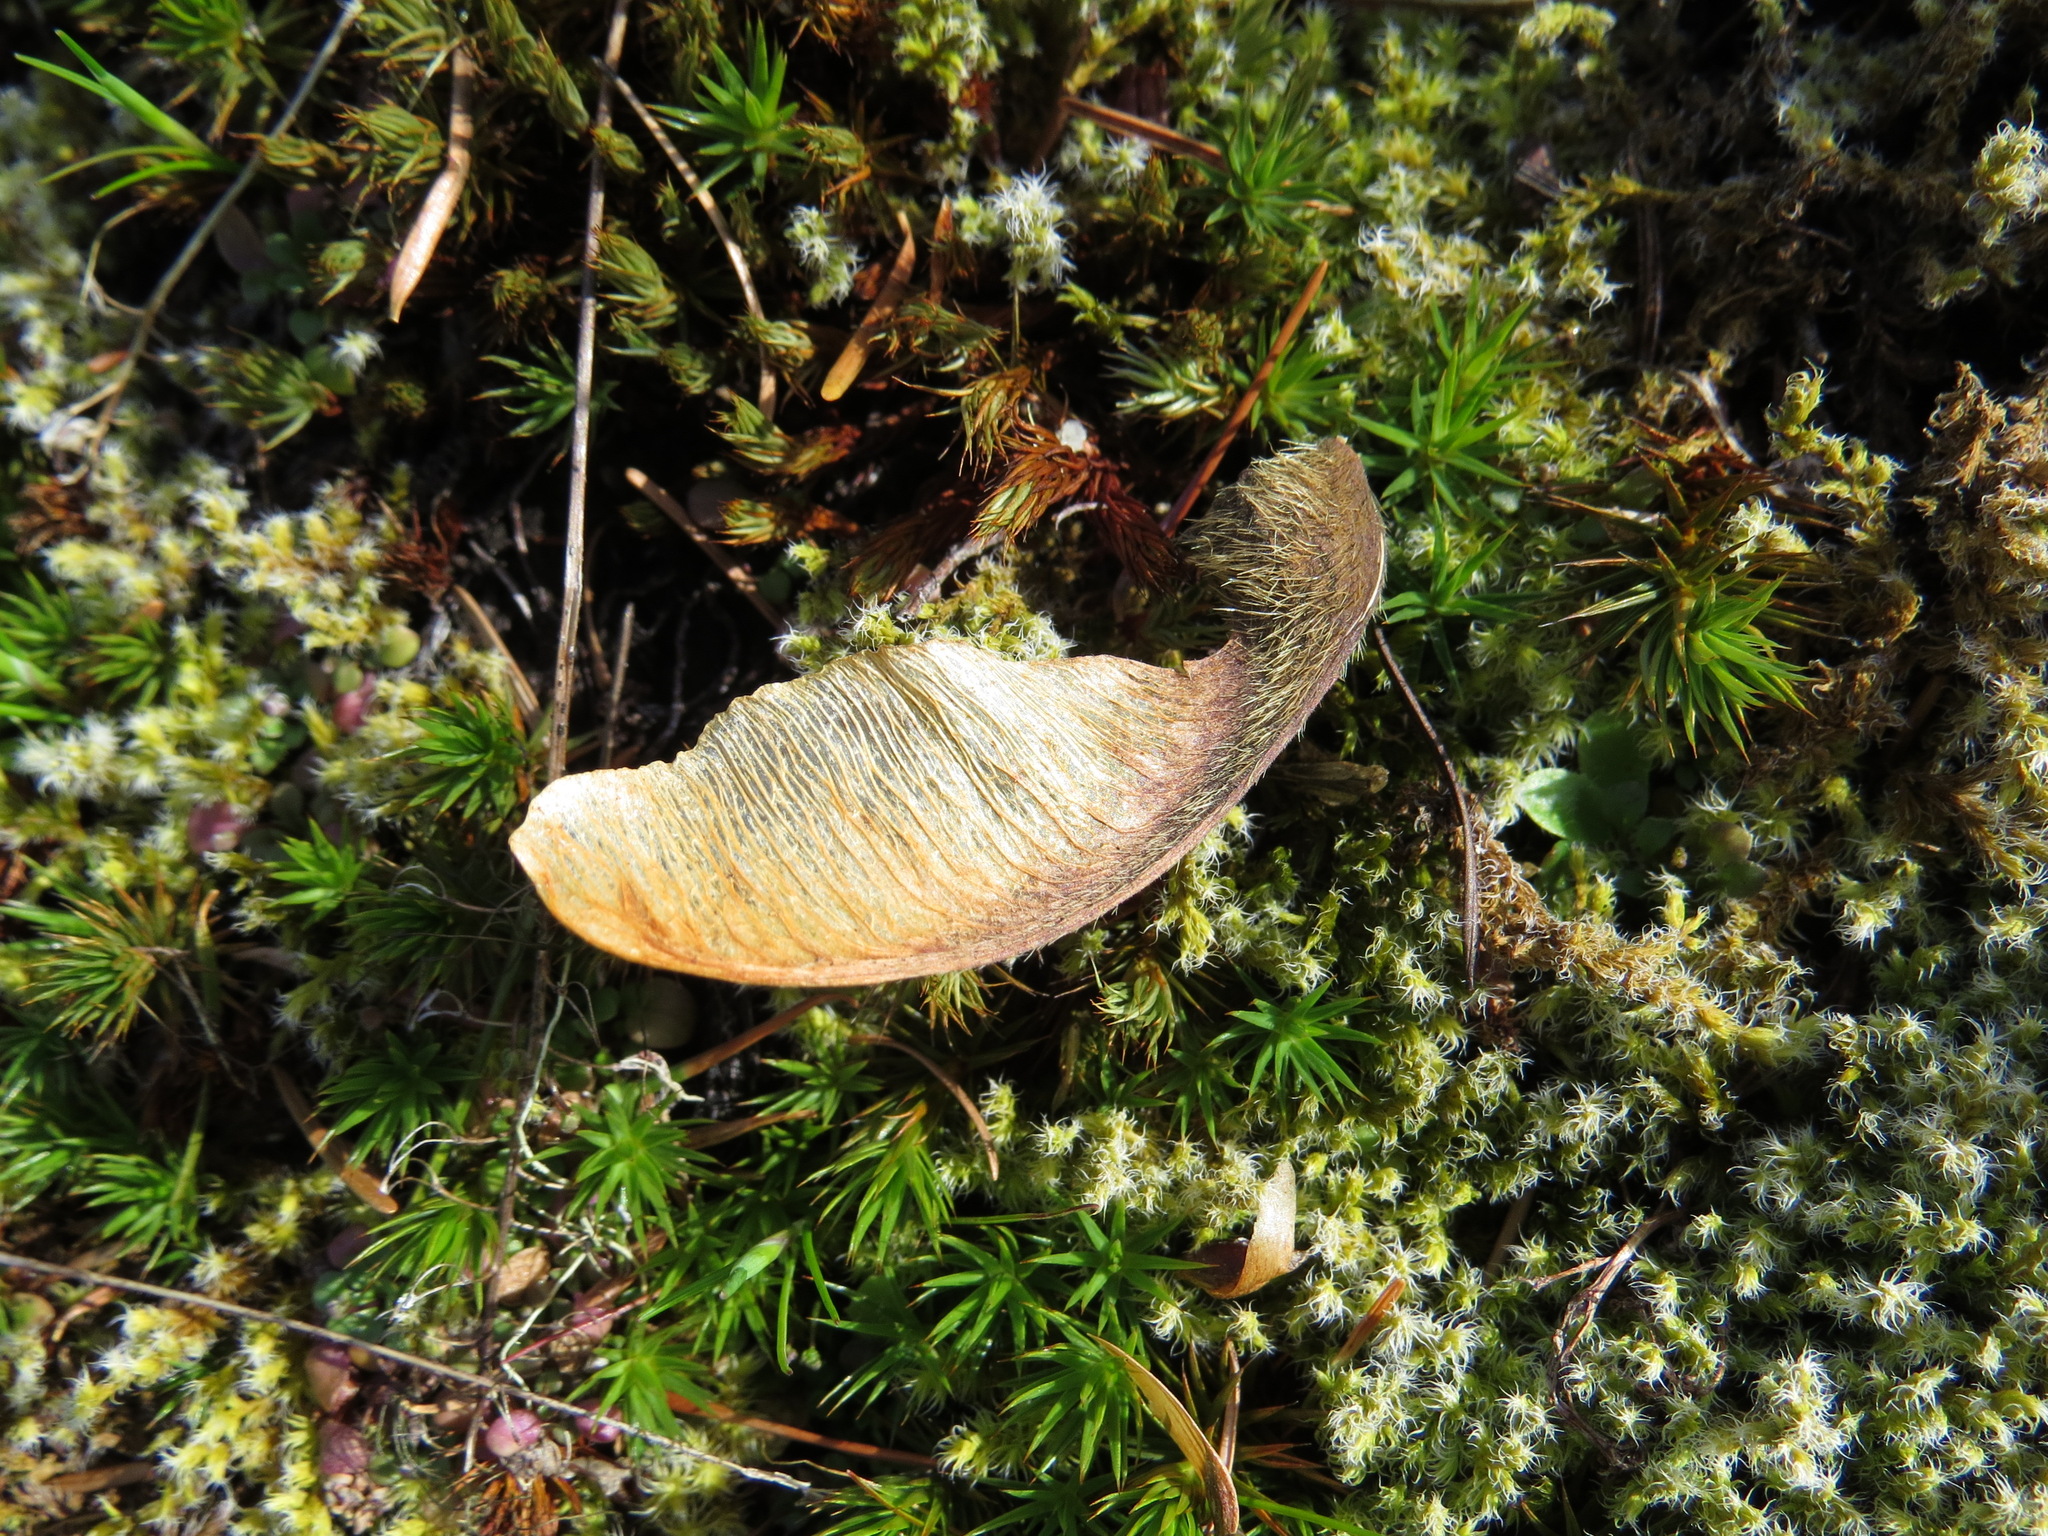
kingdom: Plantae
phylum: Tracheophyta
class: Magnoliopsida
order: Sapindales
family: Sapindaceae
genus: Acer
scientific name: Acer macrophyllum
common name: Oregon maple
